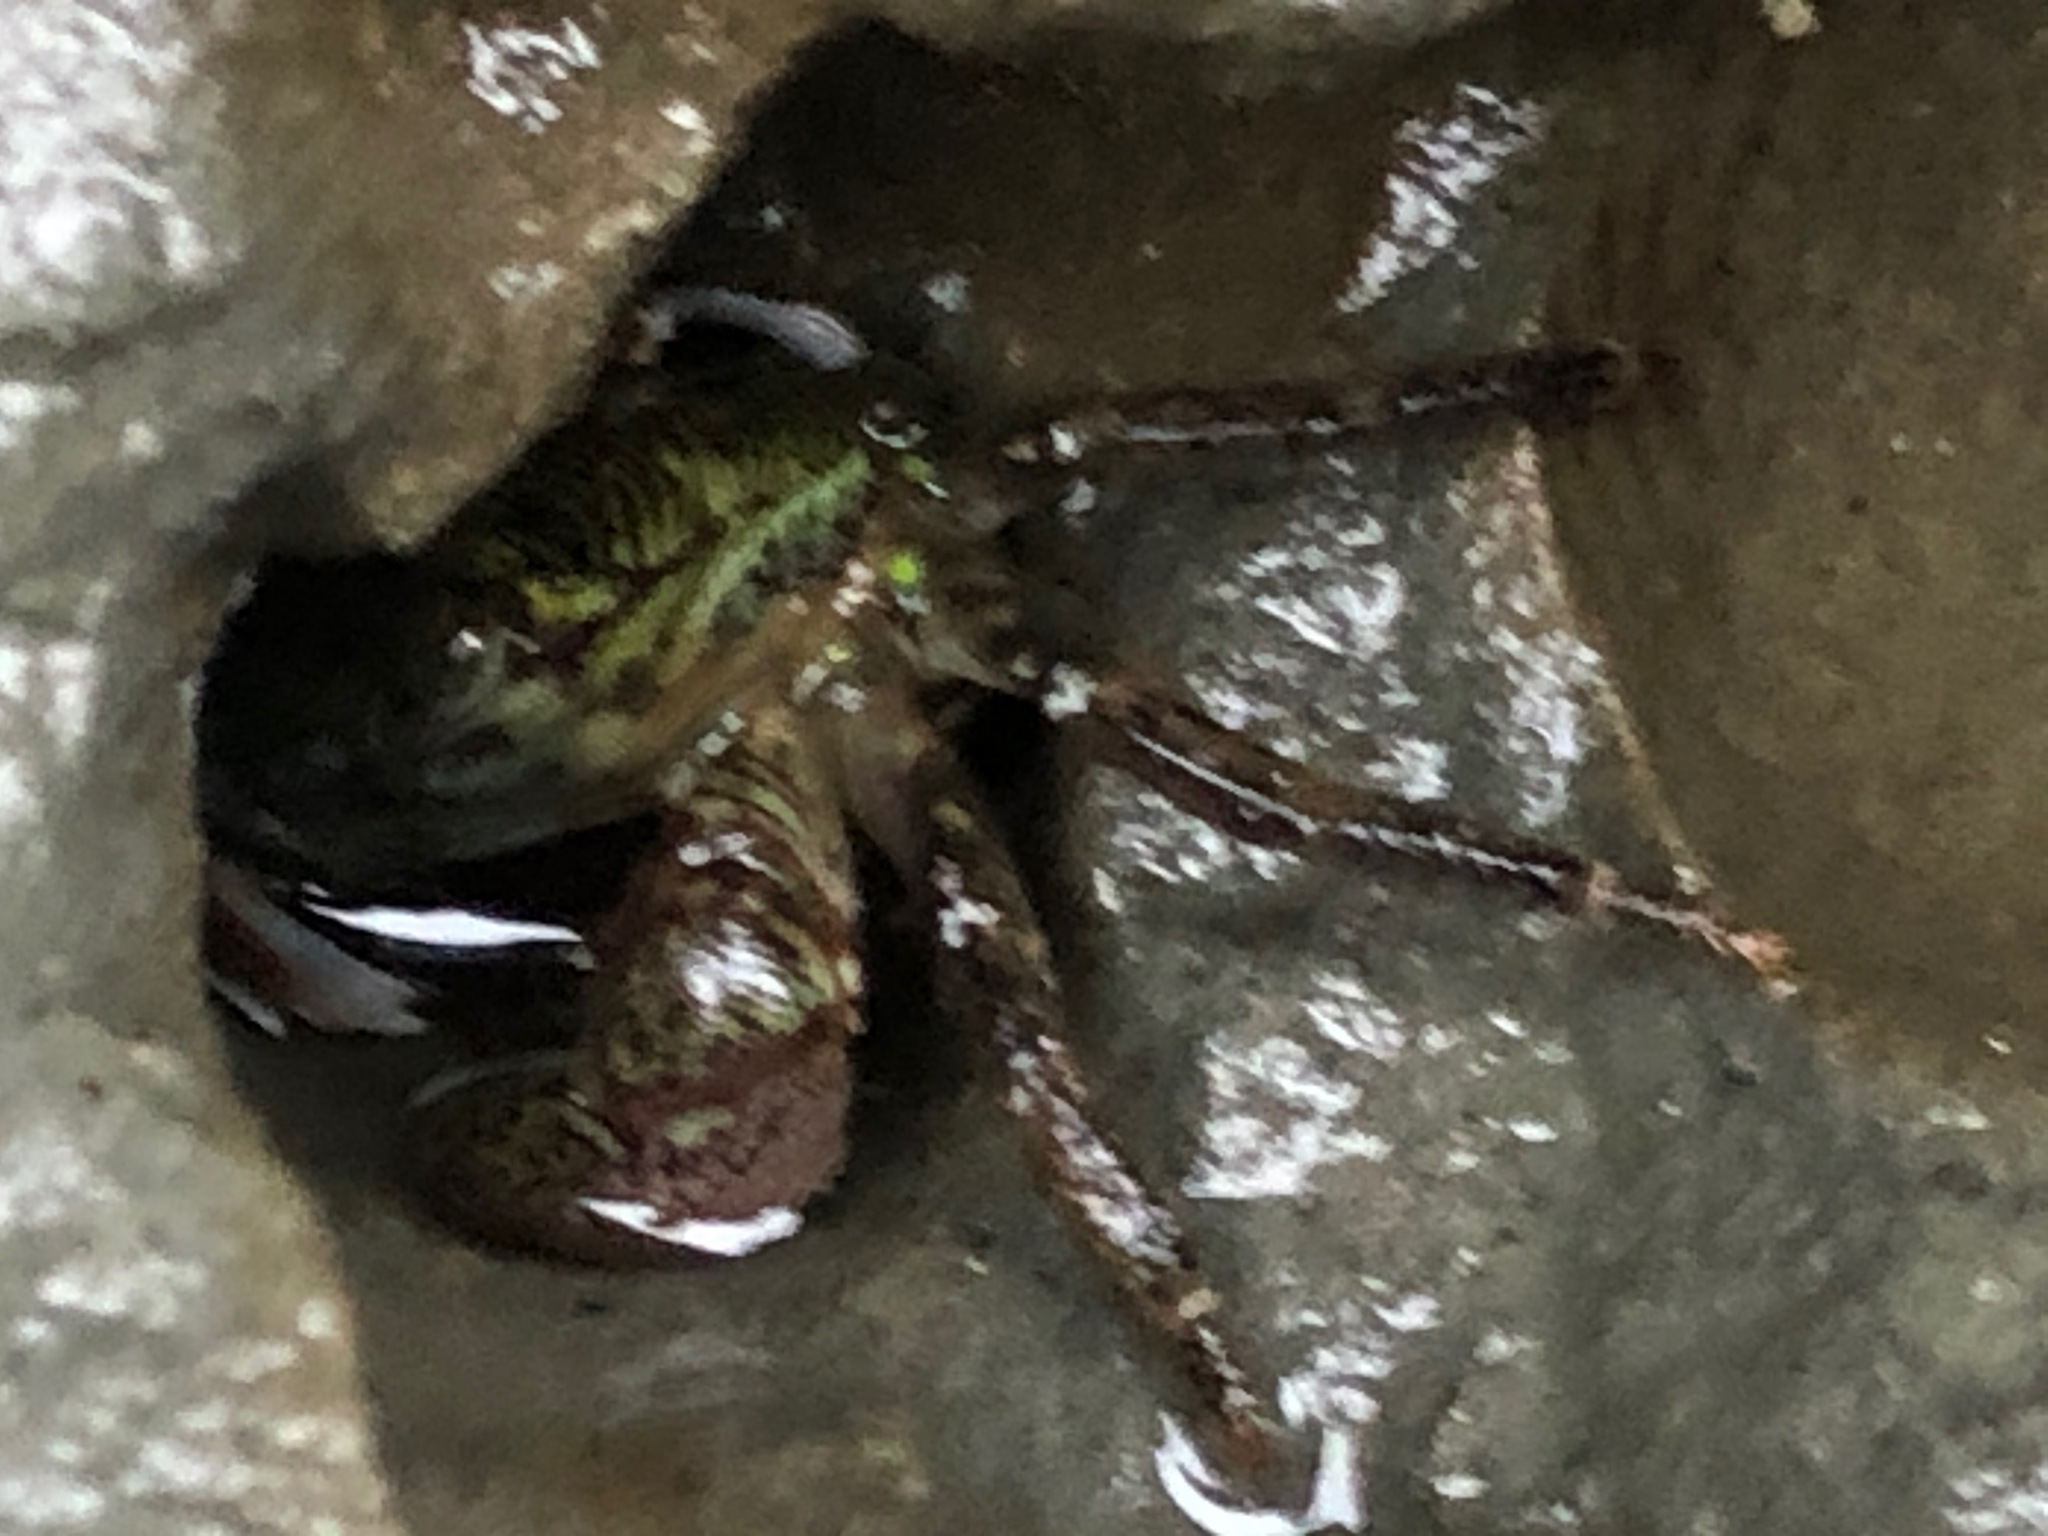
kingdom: Animalia
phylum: Arthropoda
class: Malacostraca
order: Decapoda
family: Grapsidae
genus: Pachygrapsus
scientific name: Pachygrapsus crassipes
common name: Striped shore crab
